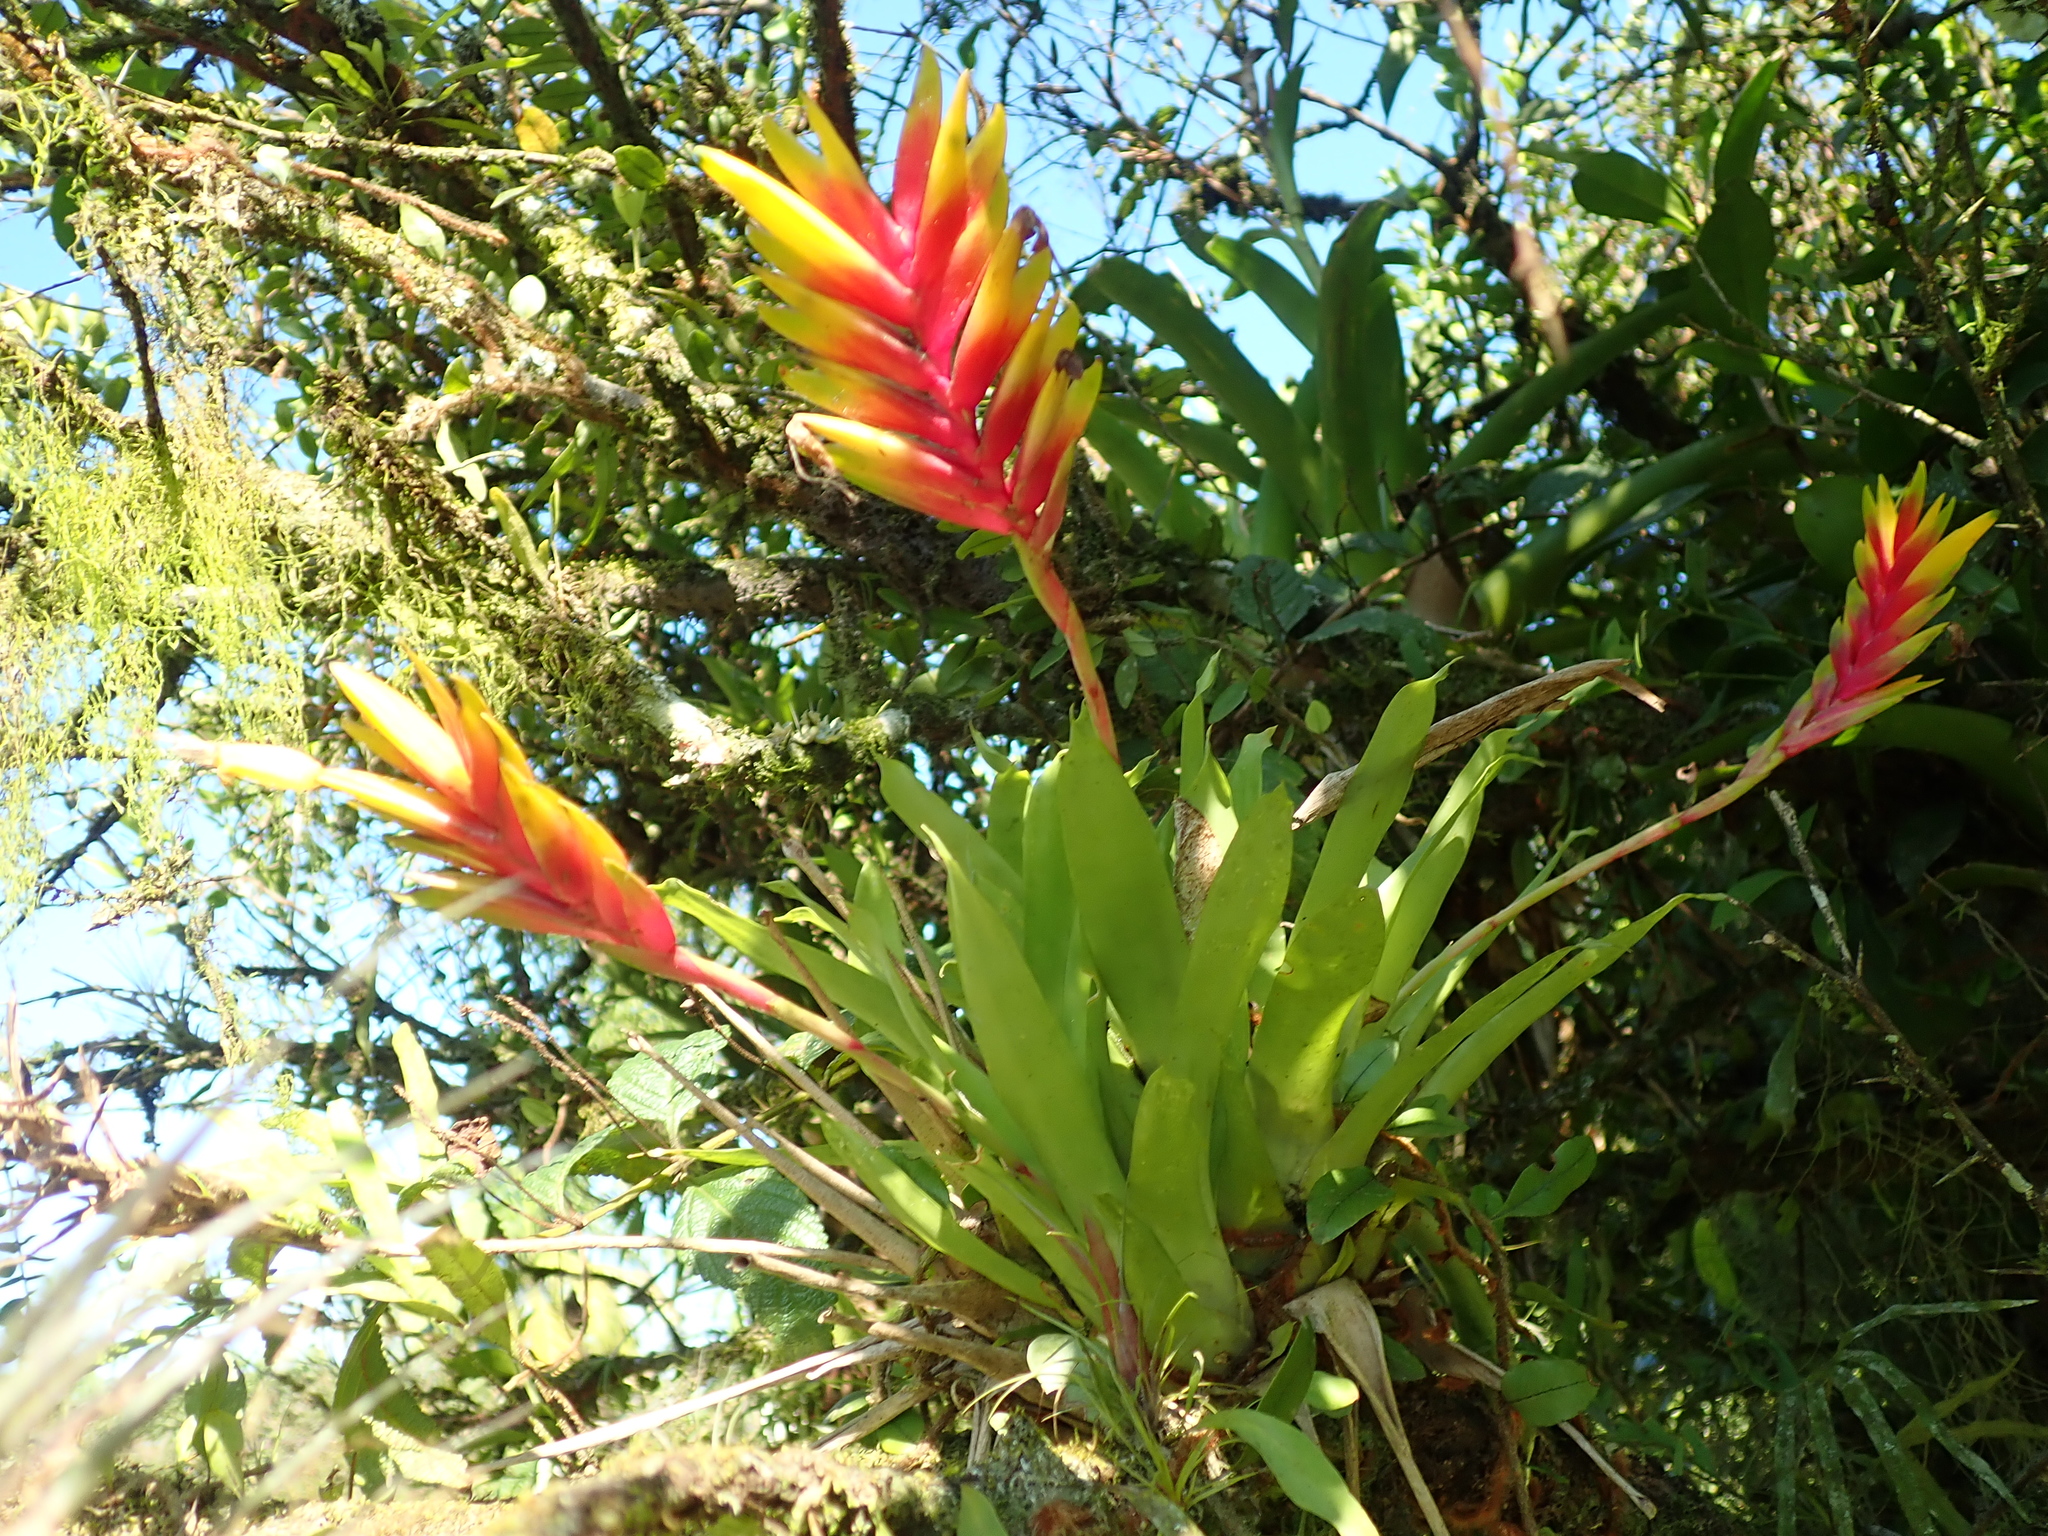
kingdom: Plantae
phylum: Tracheophyta
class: Liliopsida
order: Poales
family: Bromeliaceae
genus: Vriesea
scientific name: Vriesea carinata
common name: Lobster-claws
